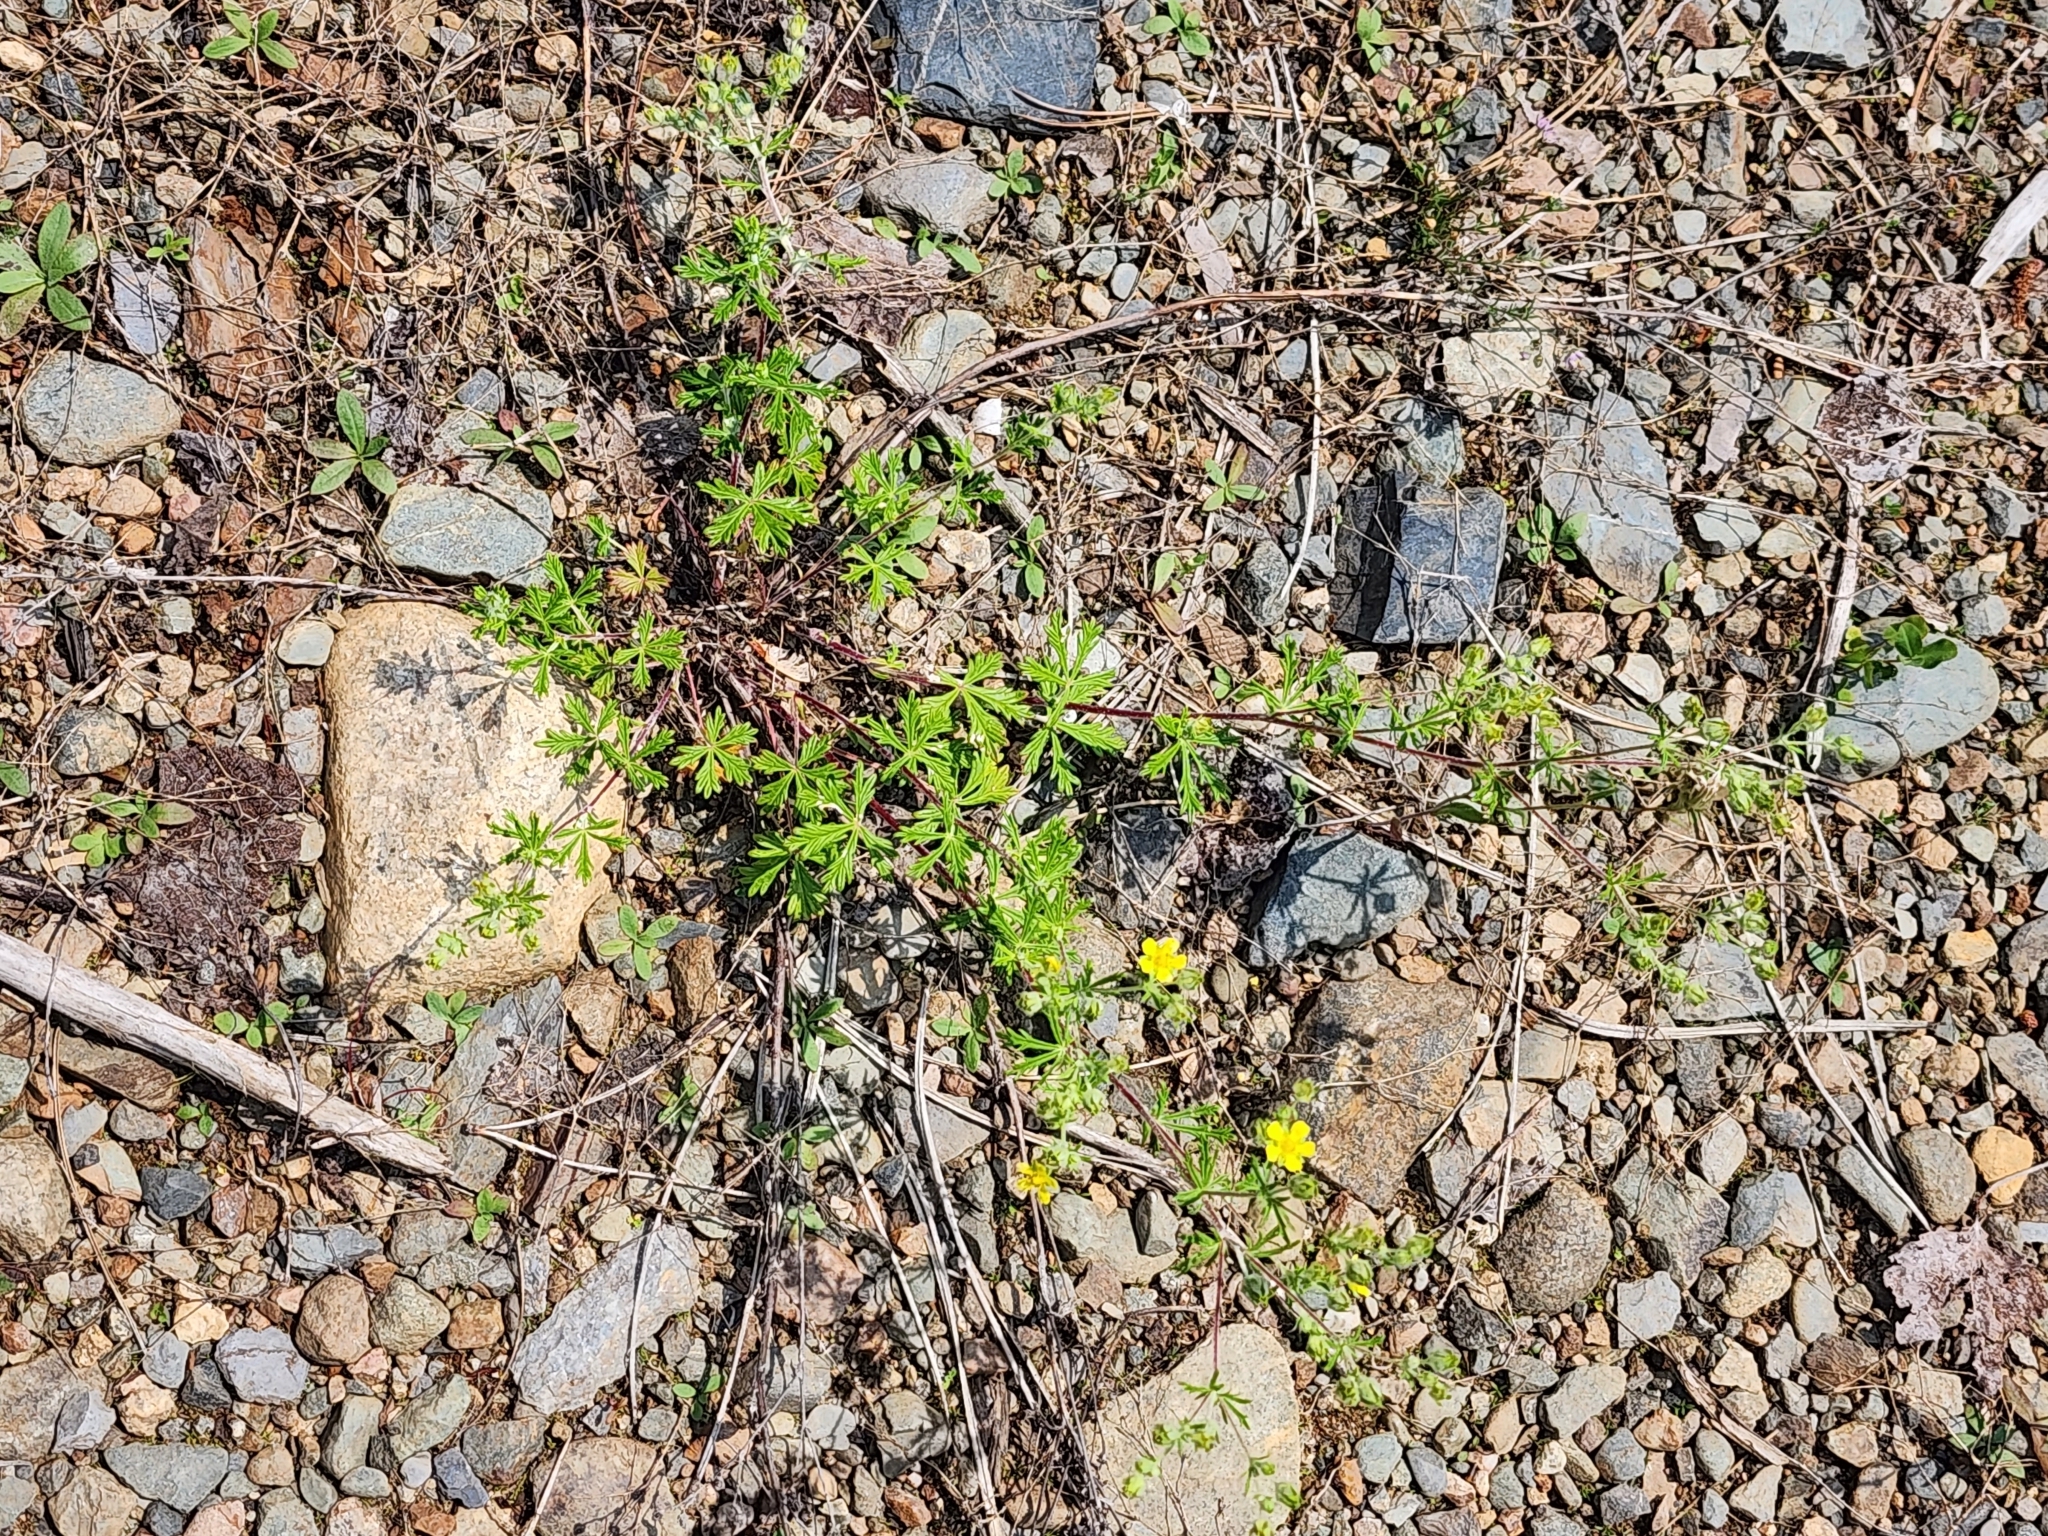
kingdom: Plantae
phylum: Tracheophyta
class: Magnoliopsida
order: Rosales
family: Rosaceae
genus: Potentilla
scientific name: Potentilla argentea
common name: Hoary cinquefoil
